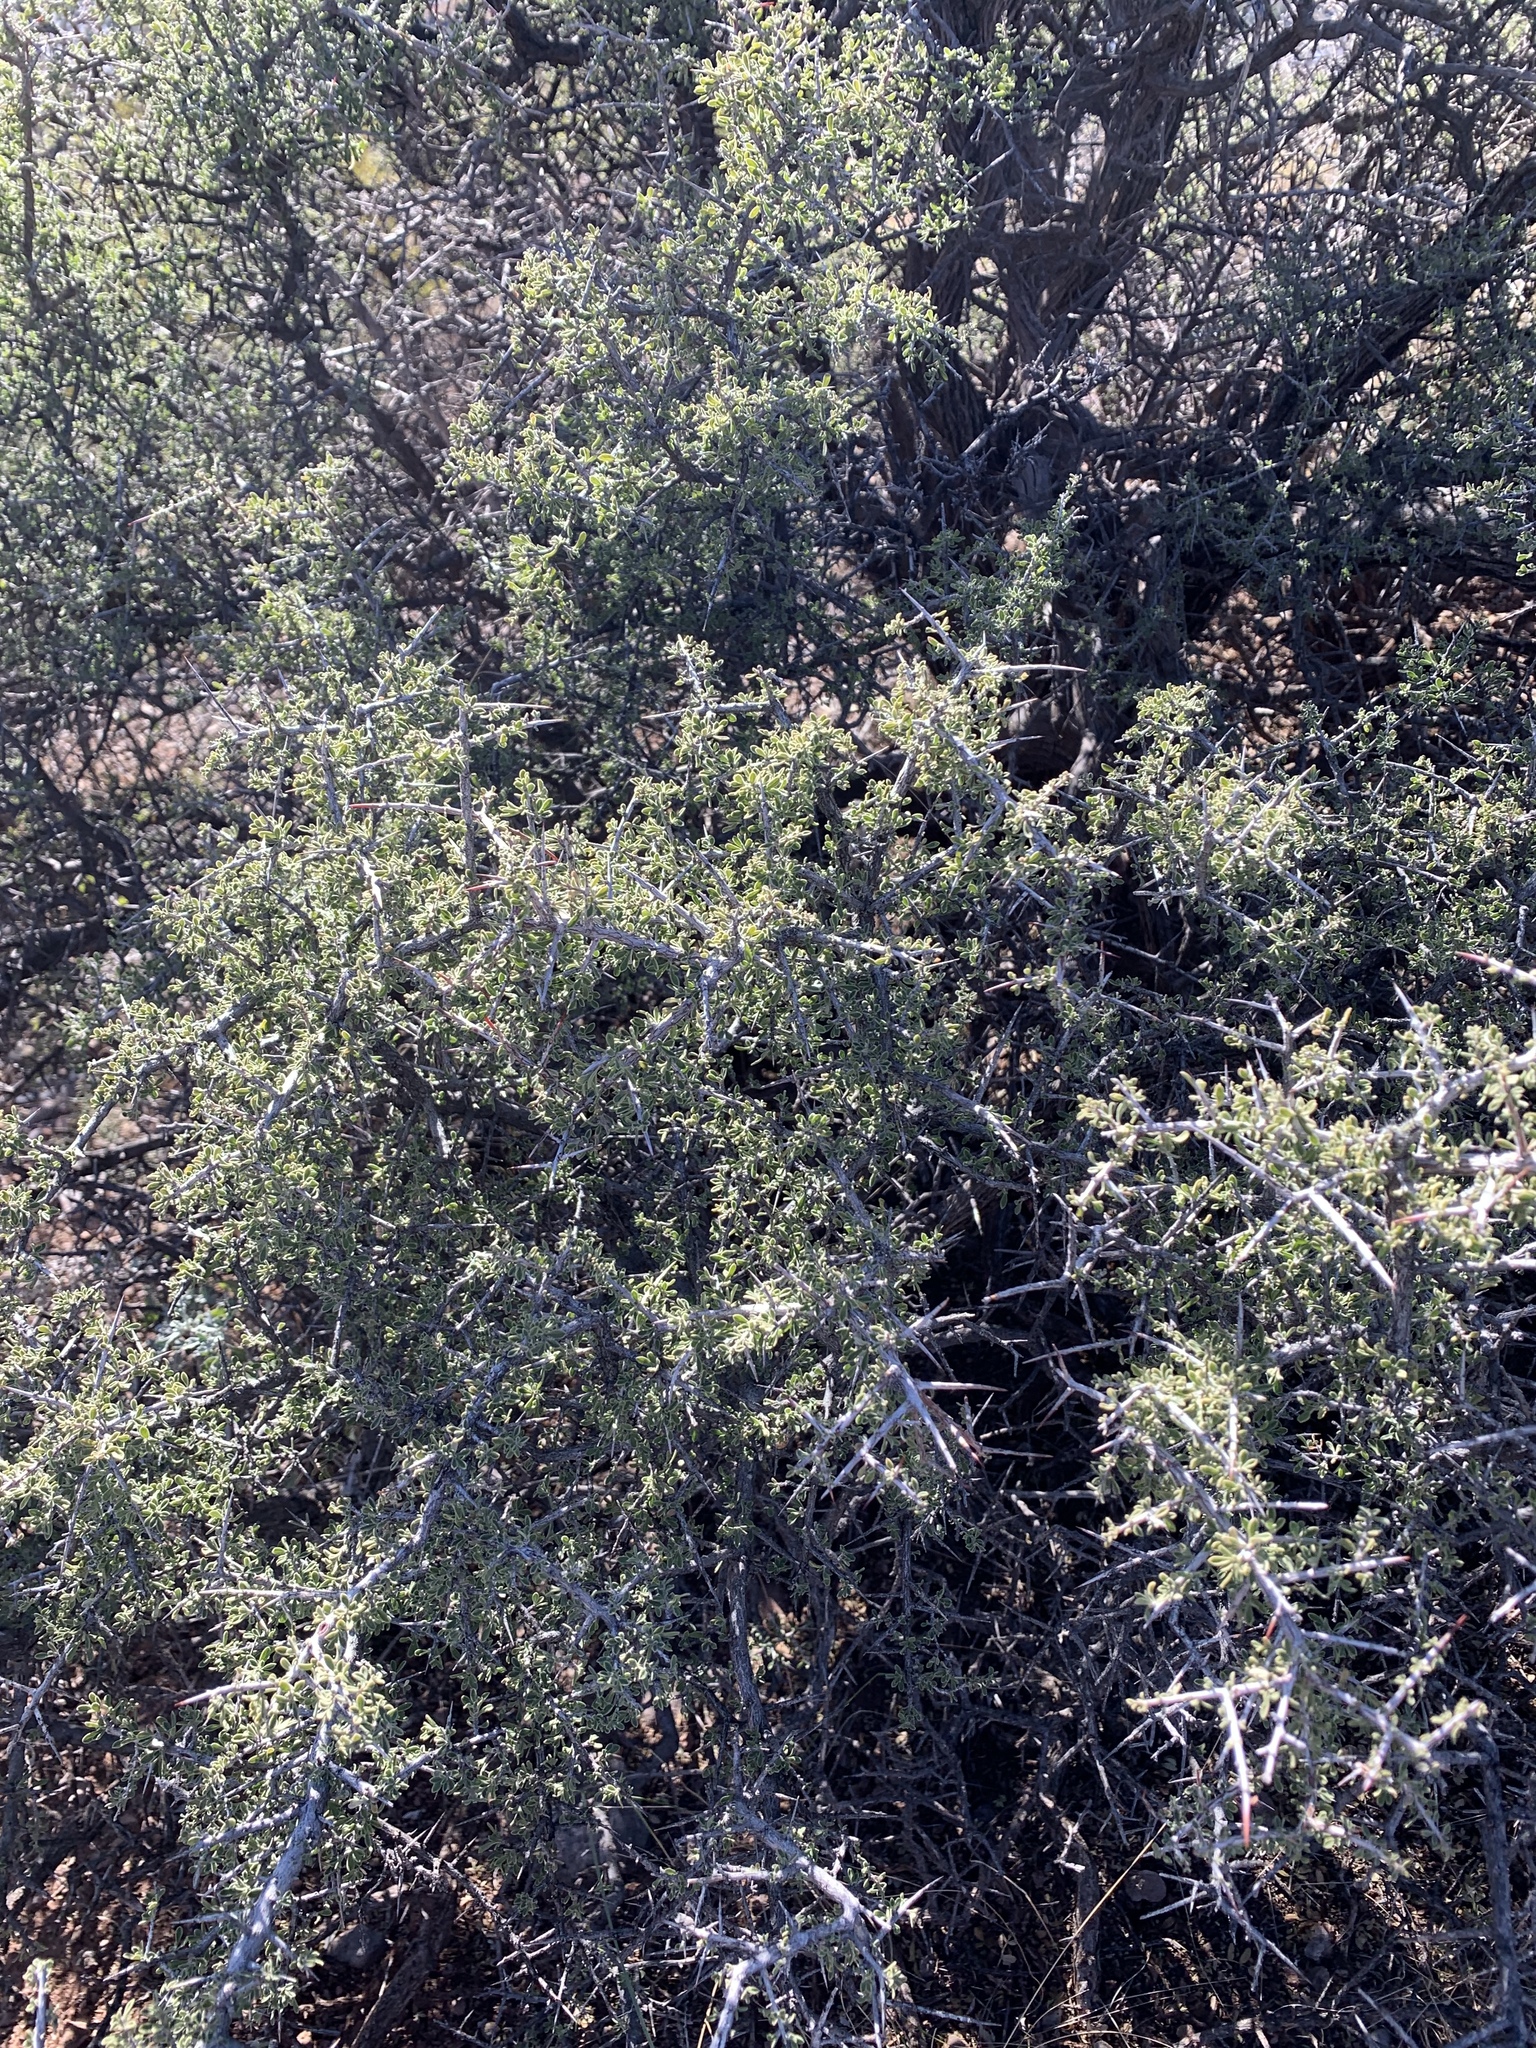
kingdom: Plantae
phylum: Tracheophyta
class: Magnoliopsida
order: Rosales
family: Rhamnaceae
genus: Condalia
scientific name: Condalia warnockii
